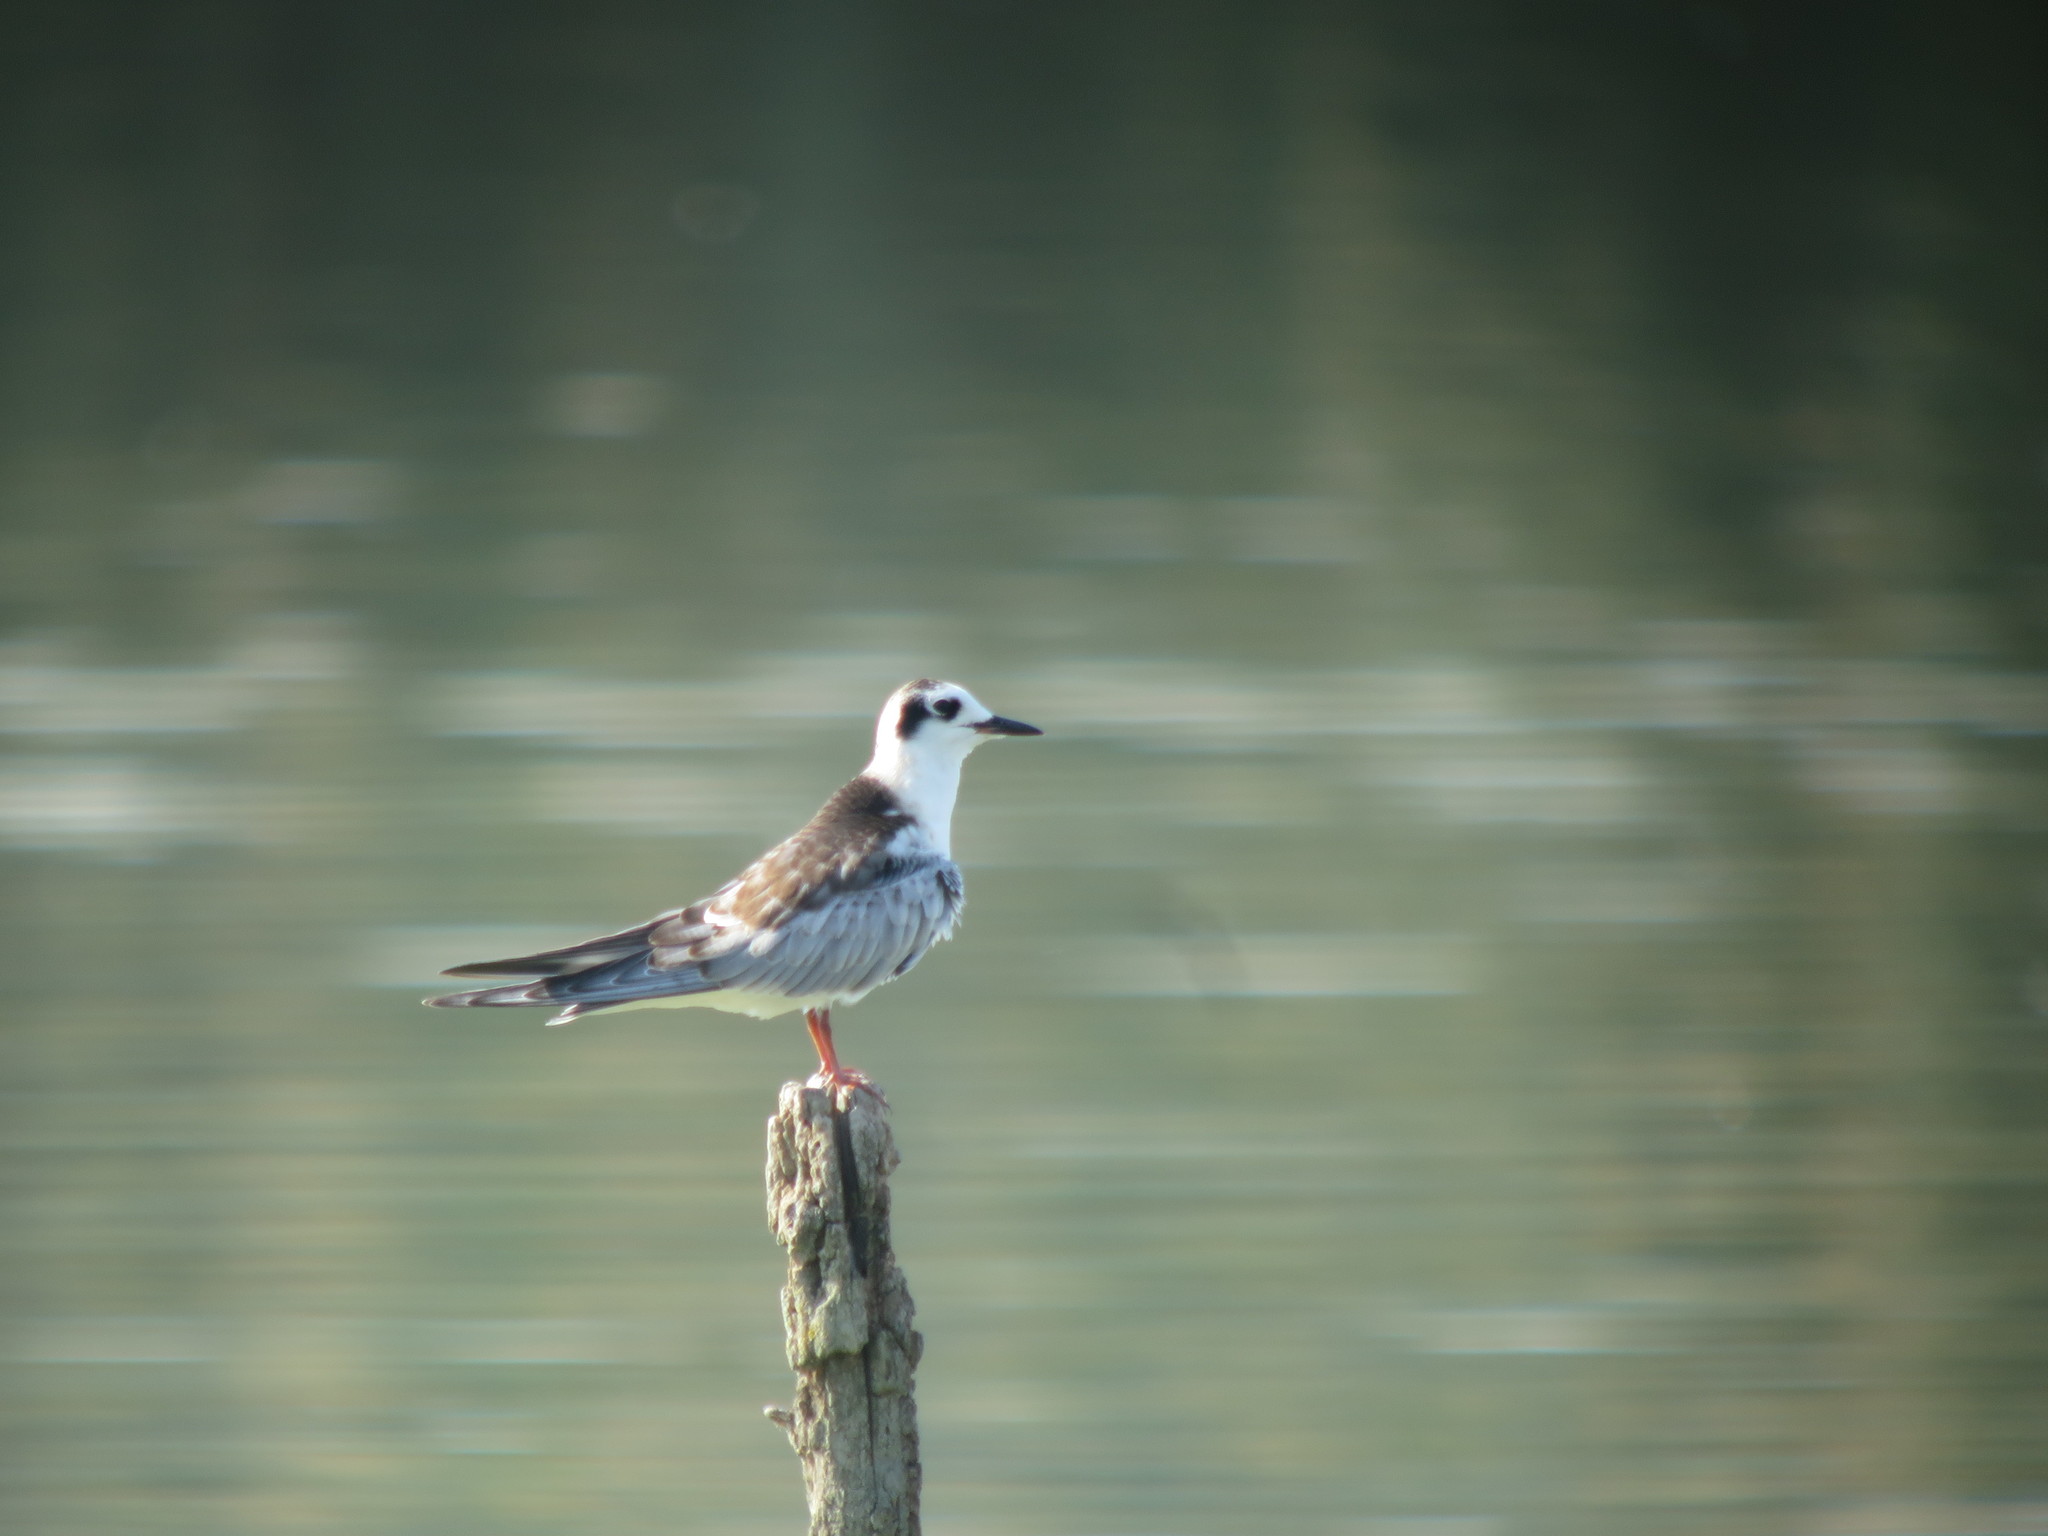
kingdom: Animalia
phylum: Chordata
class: Aves
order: Charadriiformes
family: Laridae
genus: Chlidonias
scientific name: Chlidonias leucopterus
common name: White-winged tern
